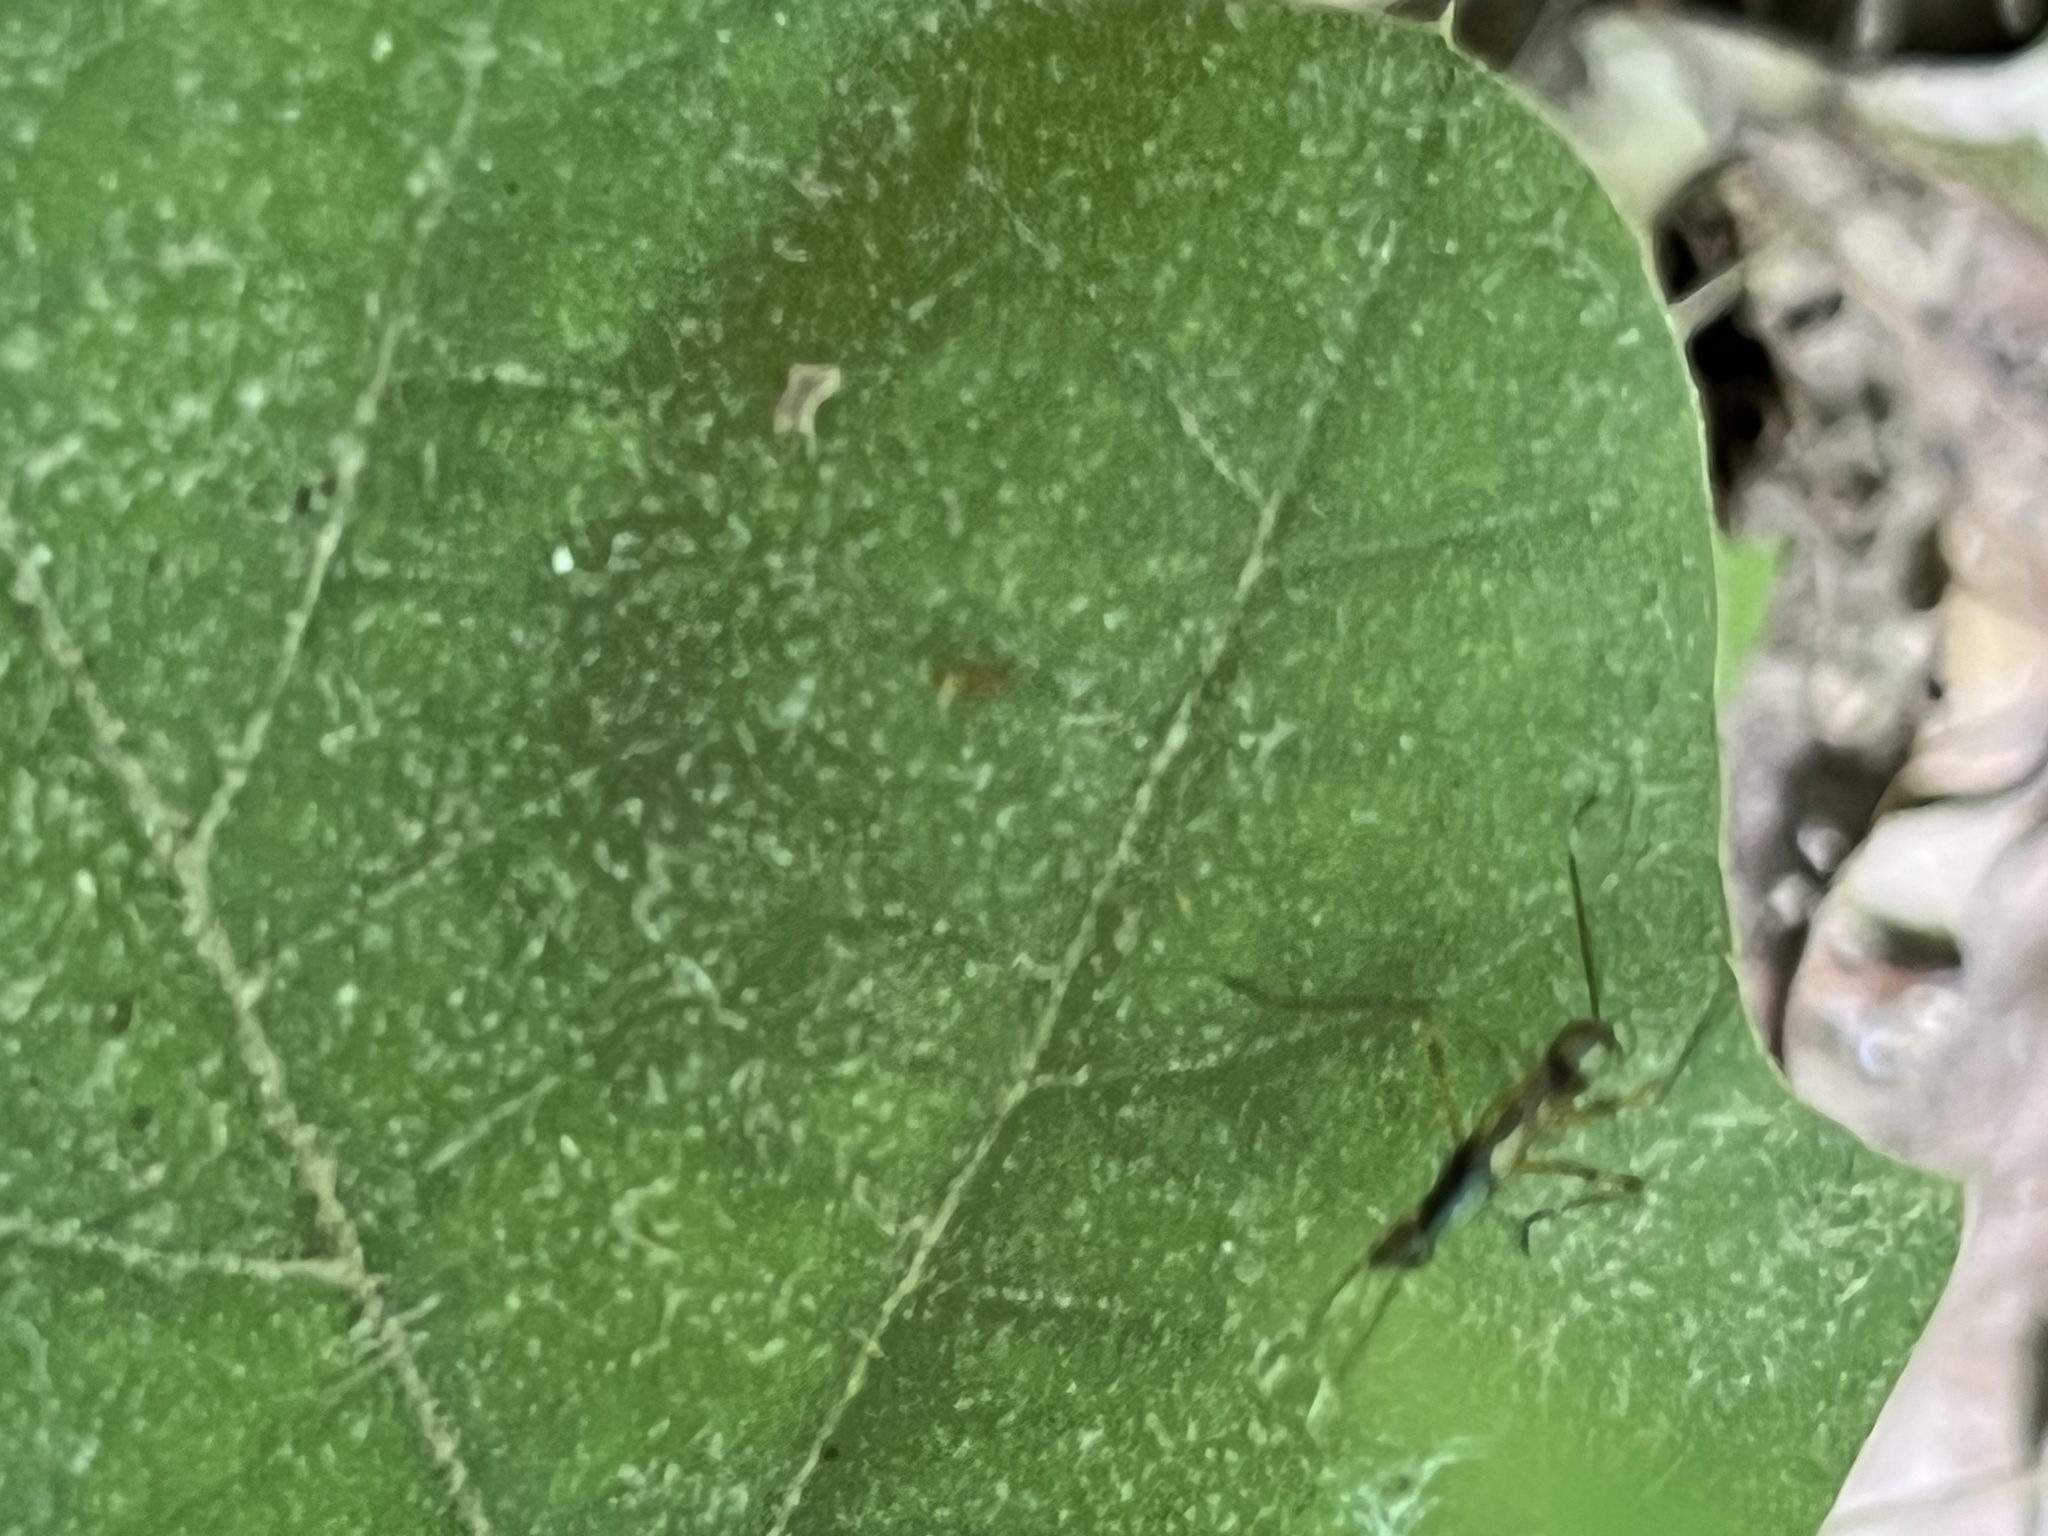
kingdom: Animalia
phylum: Arthropoda
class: Insecta
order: Diptera
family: Micropezidae
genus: Rainieria
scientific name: Rainieria antennaepes
